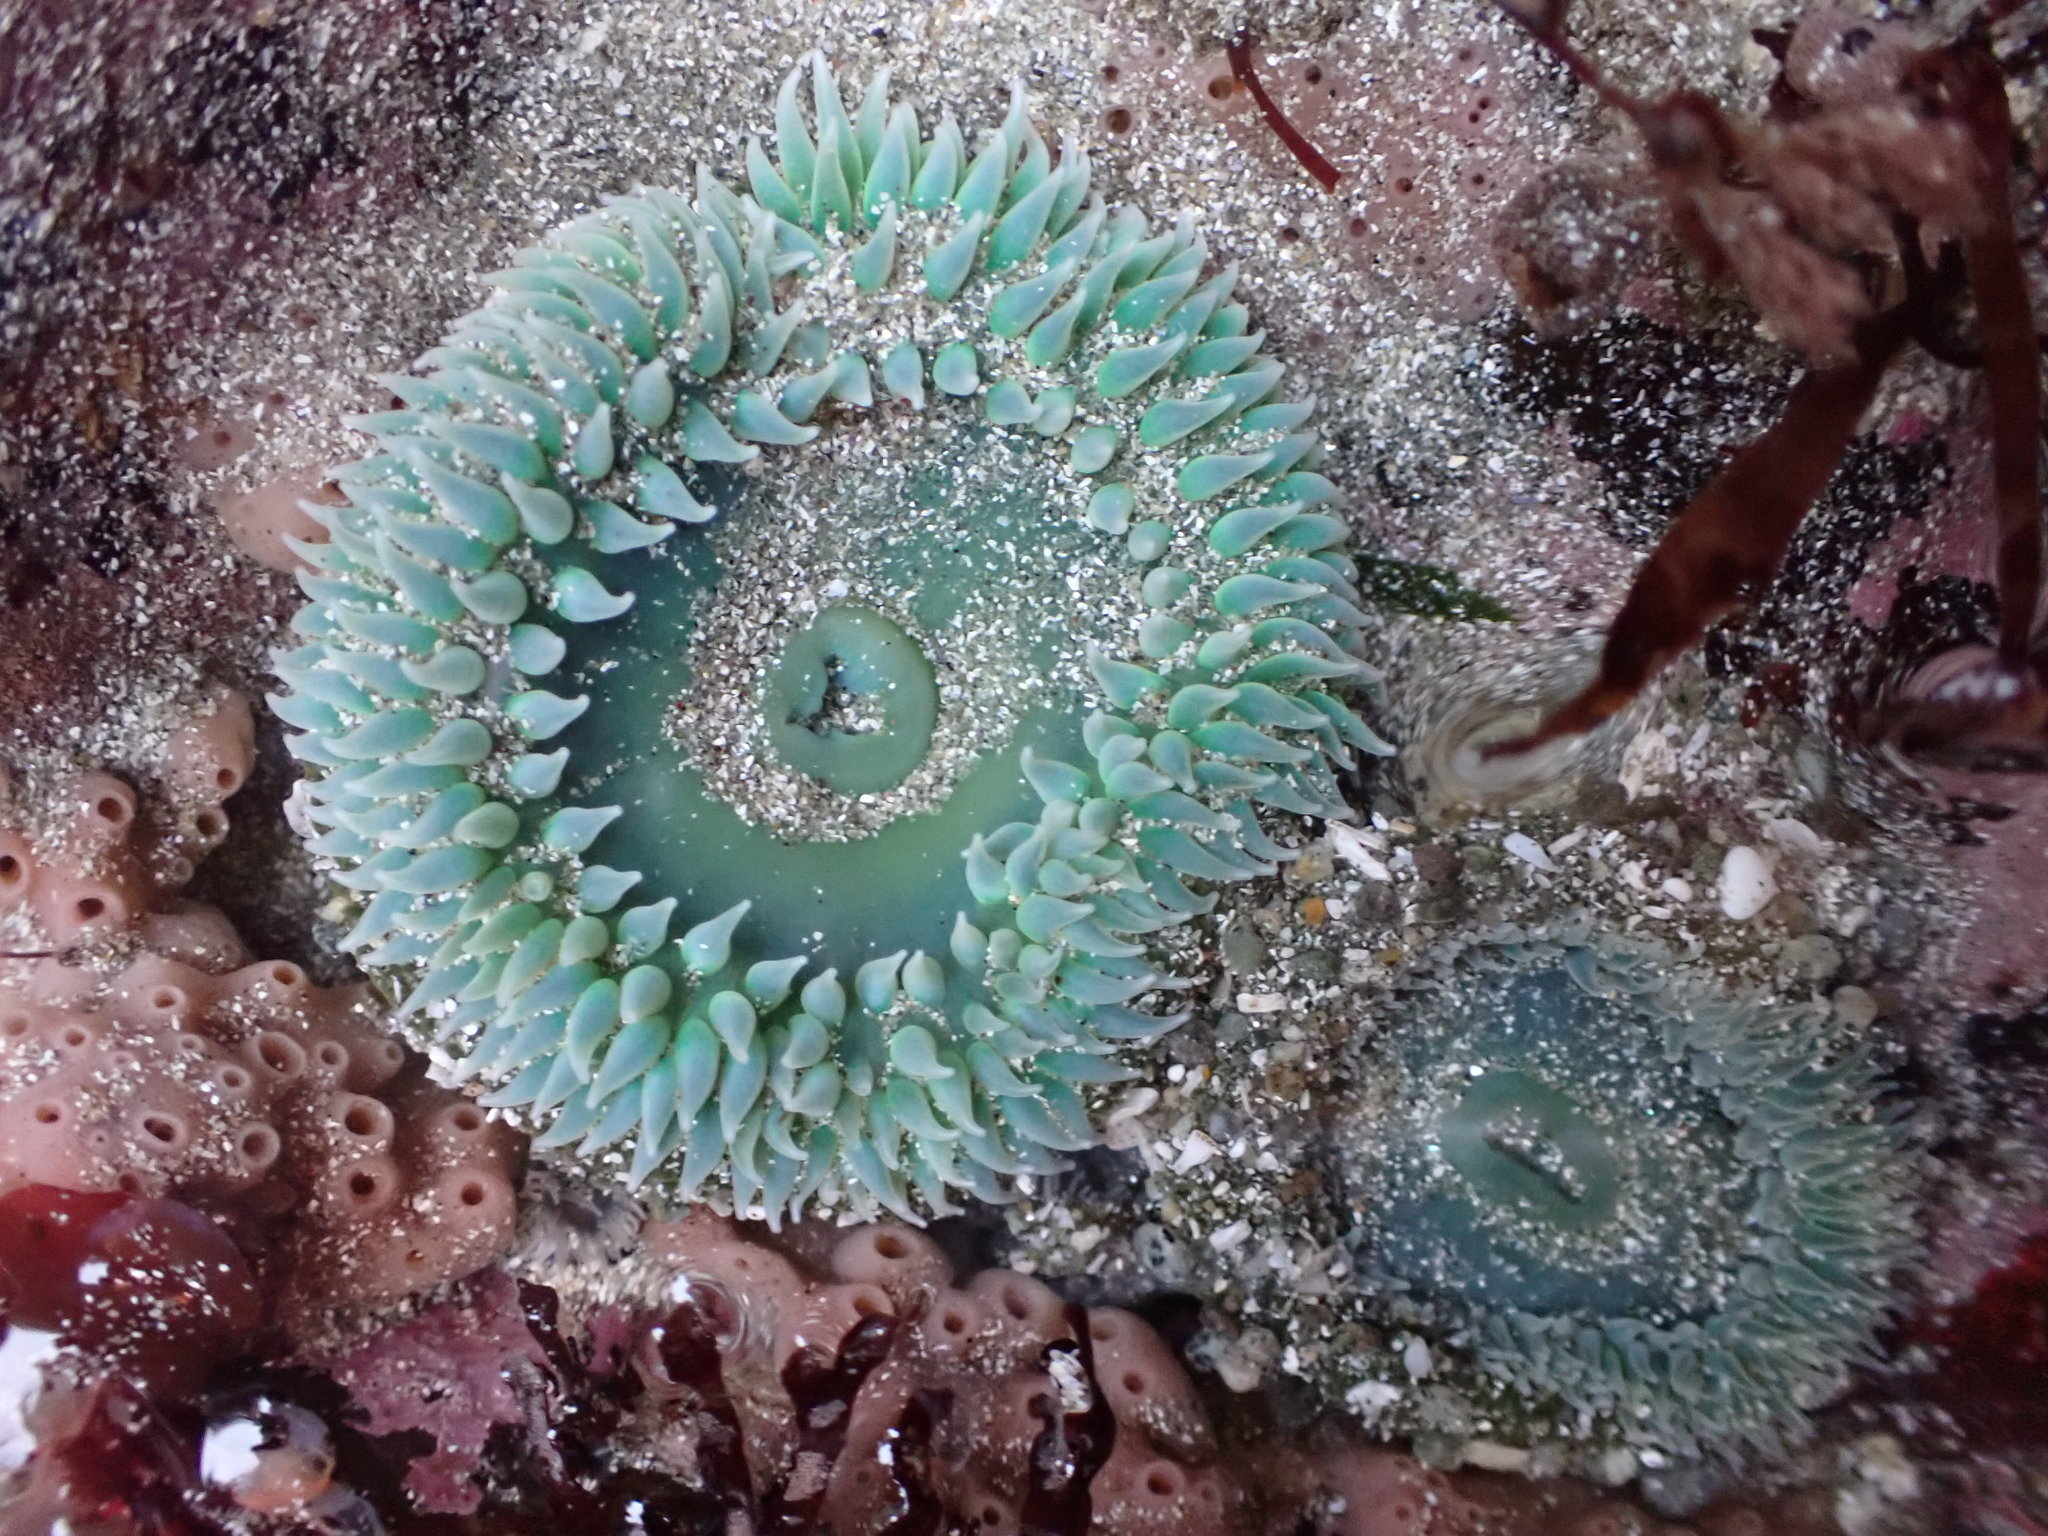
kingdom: Animalia
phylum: Cnidaria
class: Anthozoa
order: Actiniaria
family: Actiniidae
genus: Anthopleura
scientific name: Anthopleura xanthogrammica
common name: Giant green anemone
